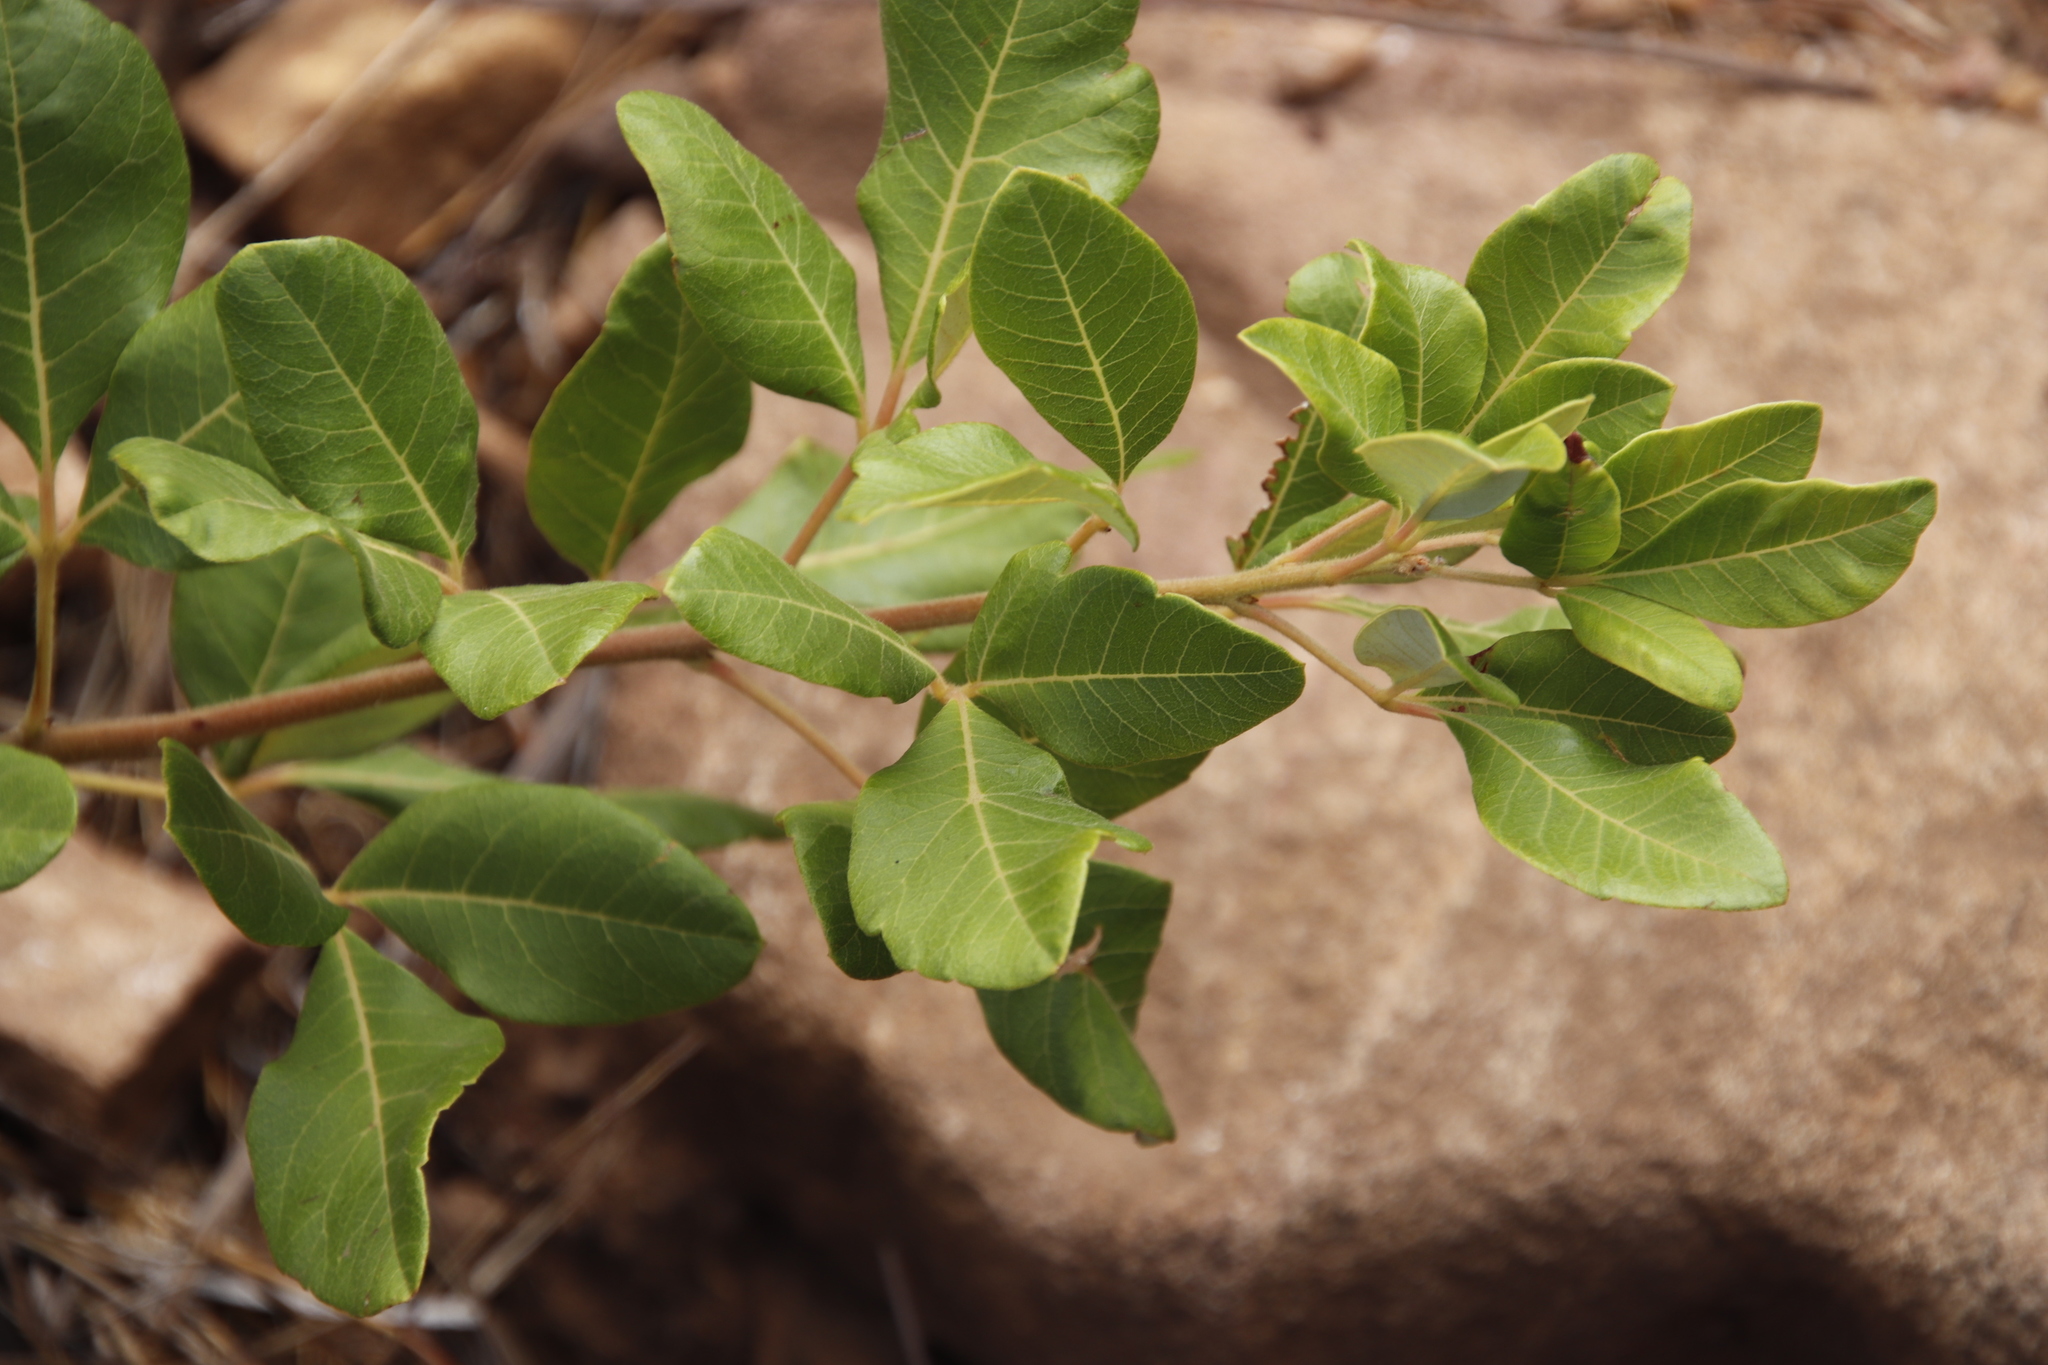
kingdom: Plantae
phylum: Tracheophyta
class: Magnoliopsida
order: Sapindales
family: Anacardiaceae
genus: Searsia
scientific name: Searsia tomentosa
